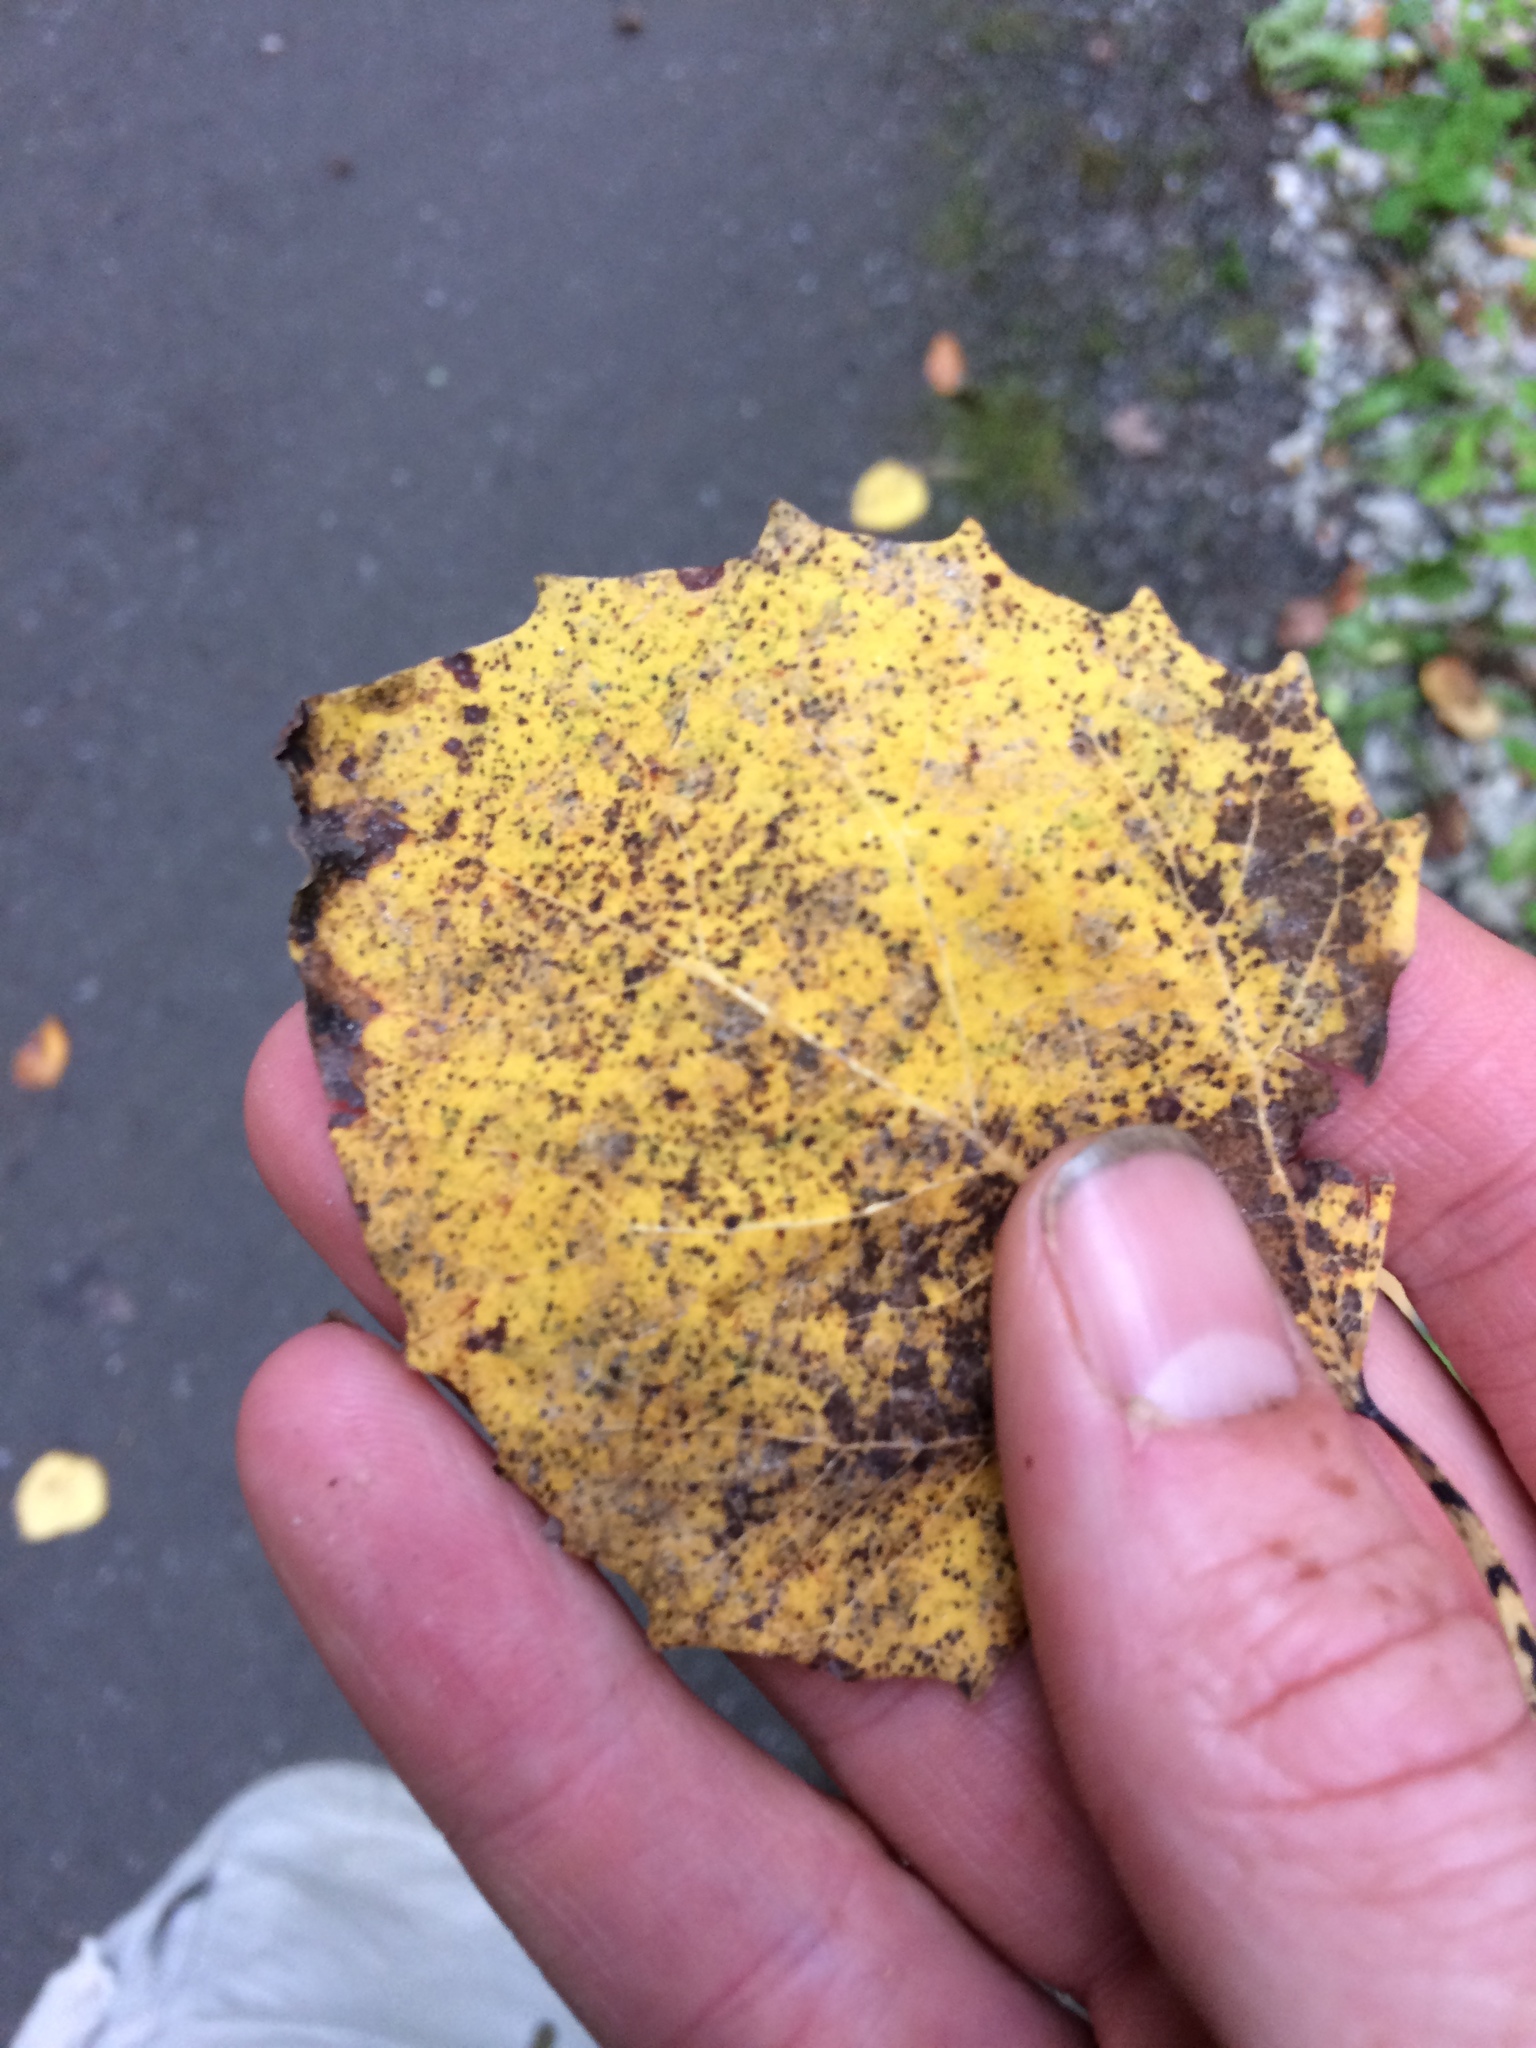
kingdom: Plantae
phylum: Tracheophyta
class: Magnoliopsida
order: Malpighiales
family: Salicaceae
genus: Populus
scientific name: Populus grandidentata
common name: Bigtooth aspen
